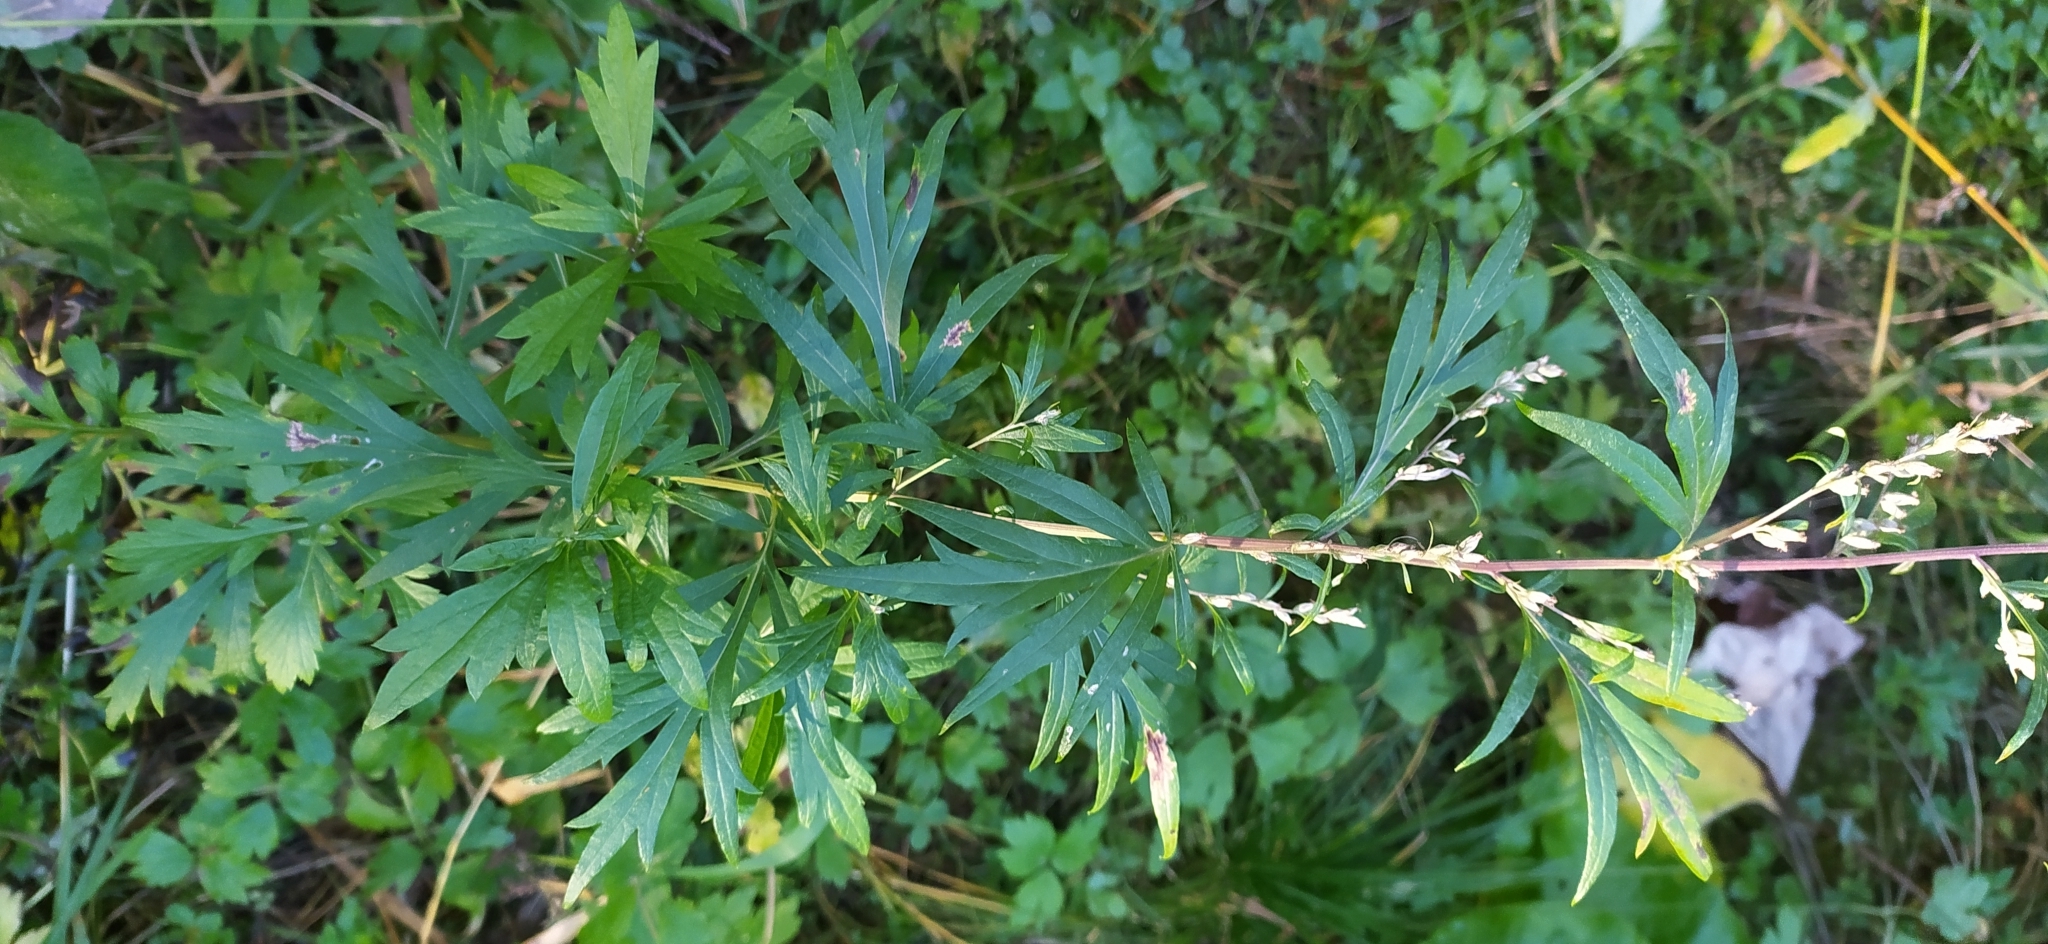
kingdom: Plantae
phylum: Tracheophyta
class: Magnoliopsida
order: Asterales
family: Asteraceae
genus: Artemisia
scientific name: Artemisia vulgaris
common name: Mugwort
